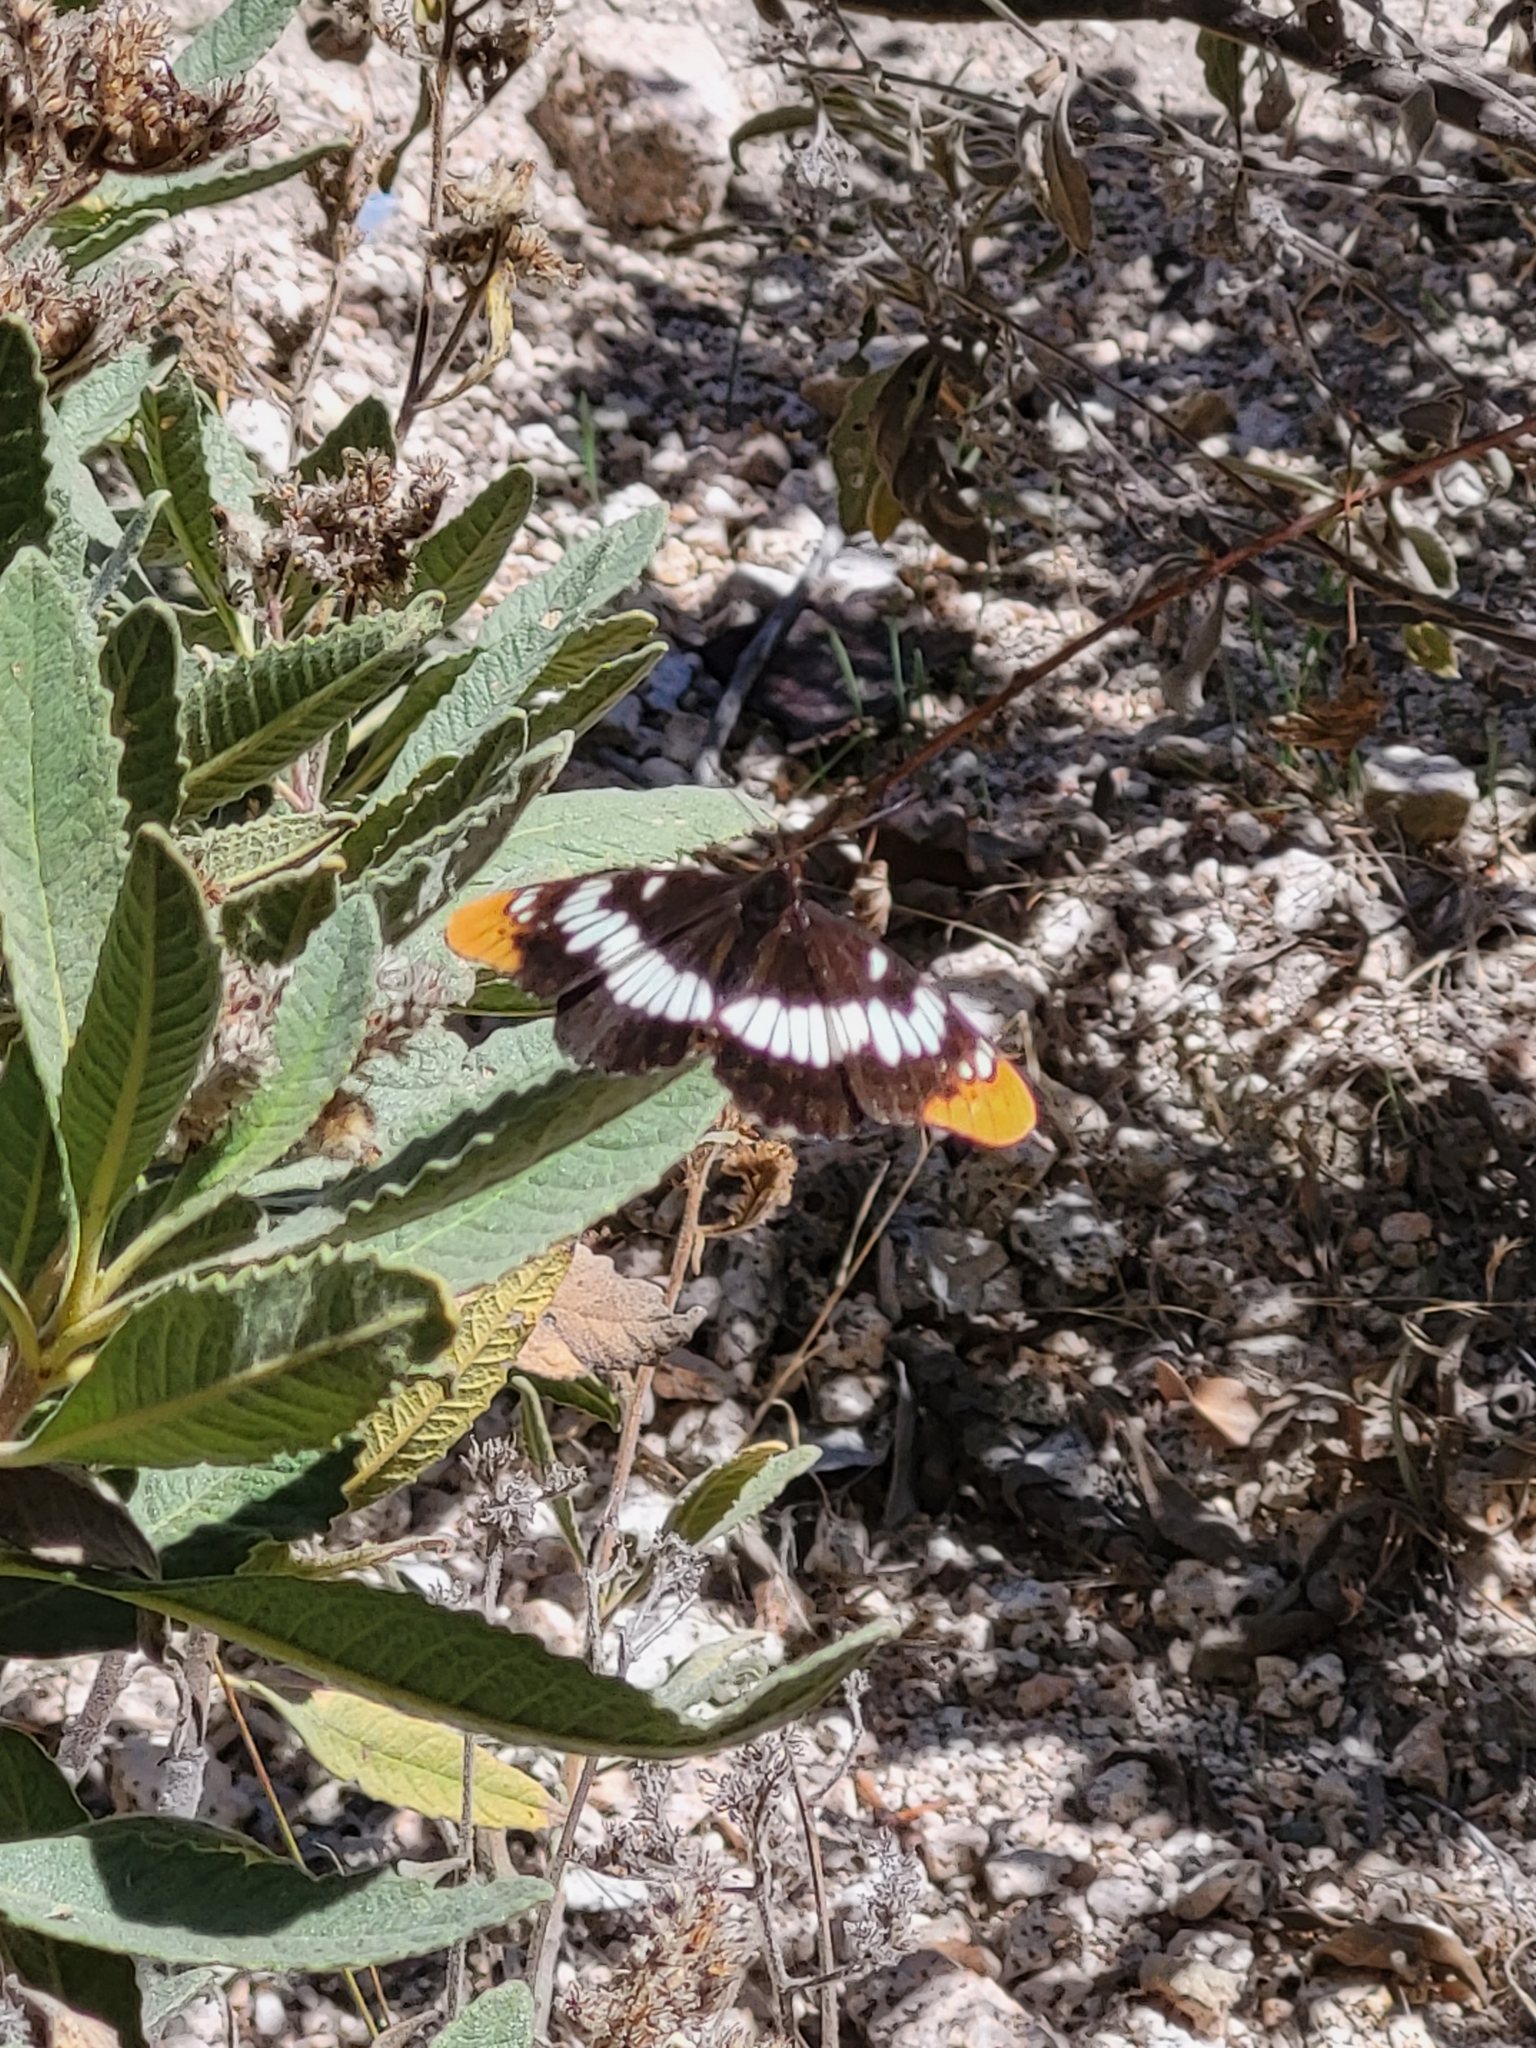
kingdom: Animalia
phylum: Arthropoda
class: Insecta
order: Lepidoptera
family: Nymphalidae
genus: Limenitis
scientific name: Limenitis lorquini
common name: Lorquin's admiral
